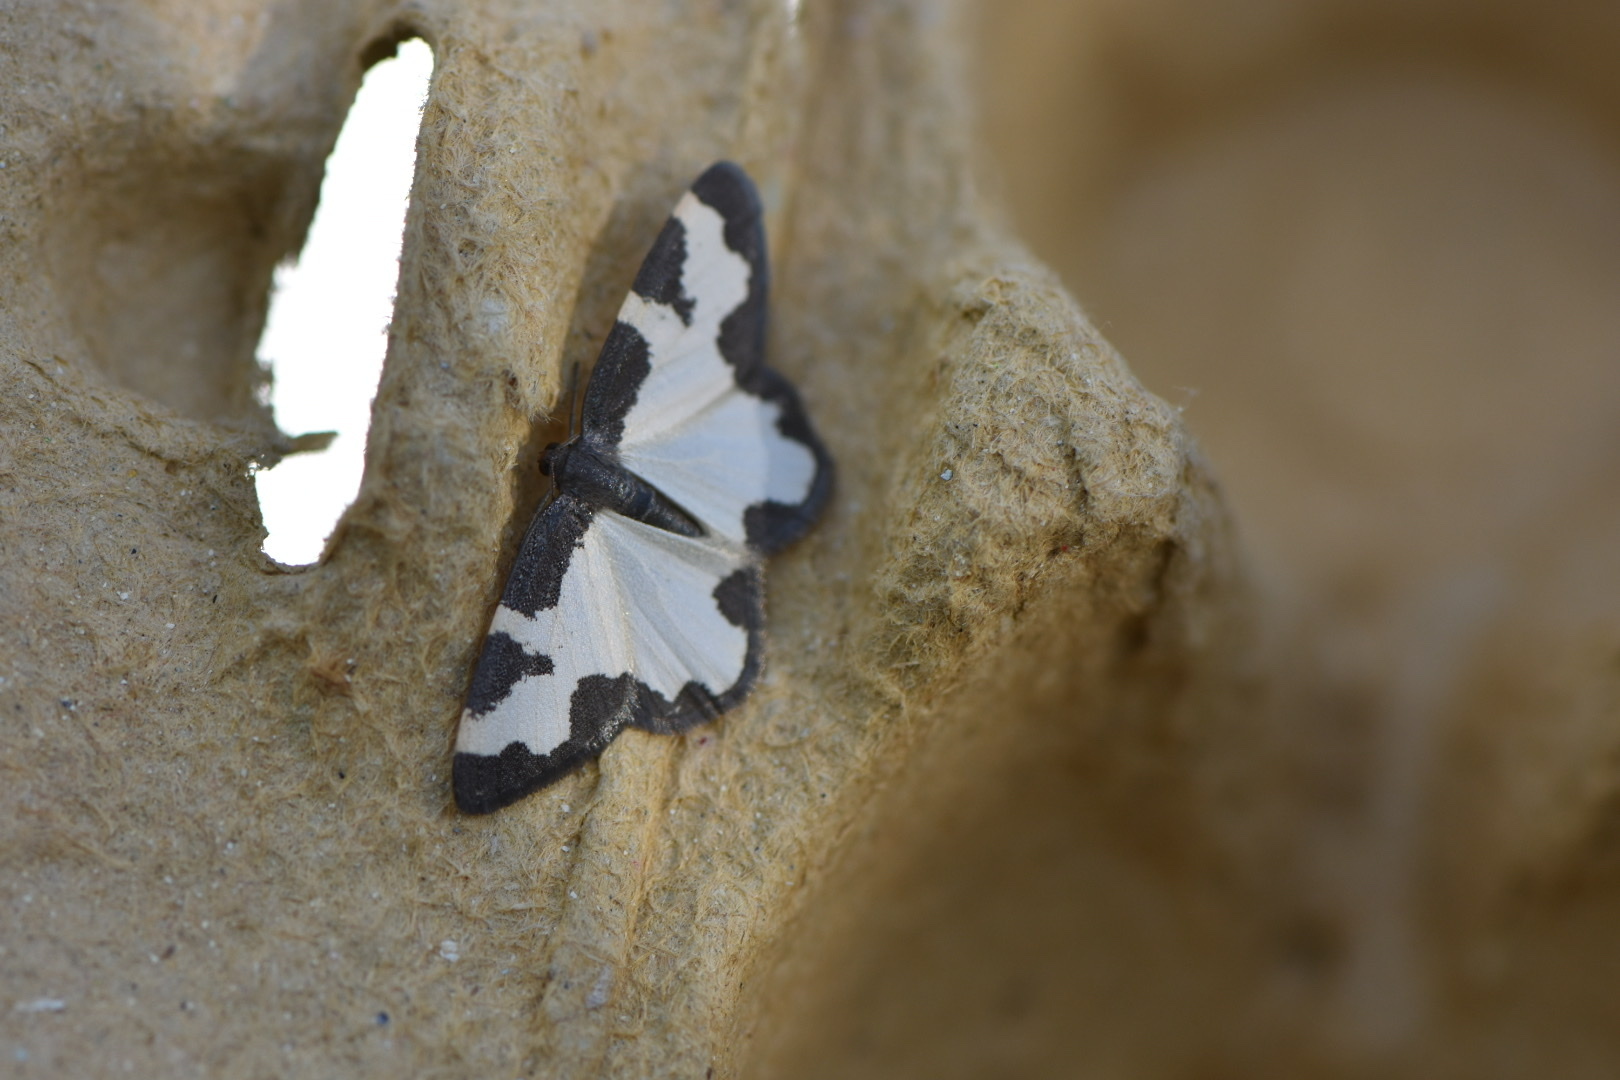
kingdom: Animalia
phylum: Arthropoda
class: Insecta
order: Lepidoptera
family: Geometridae
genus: Lomaspilis
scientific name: Lomaspilis marginata
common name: Clouded border
